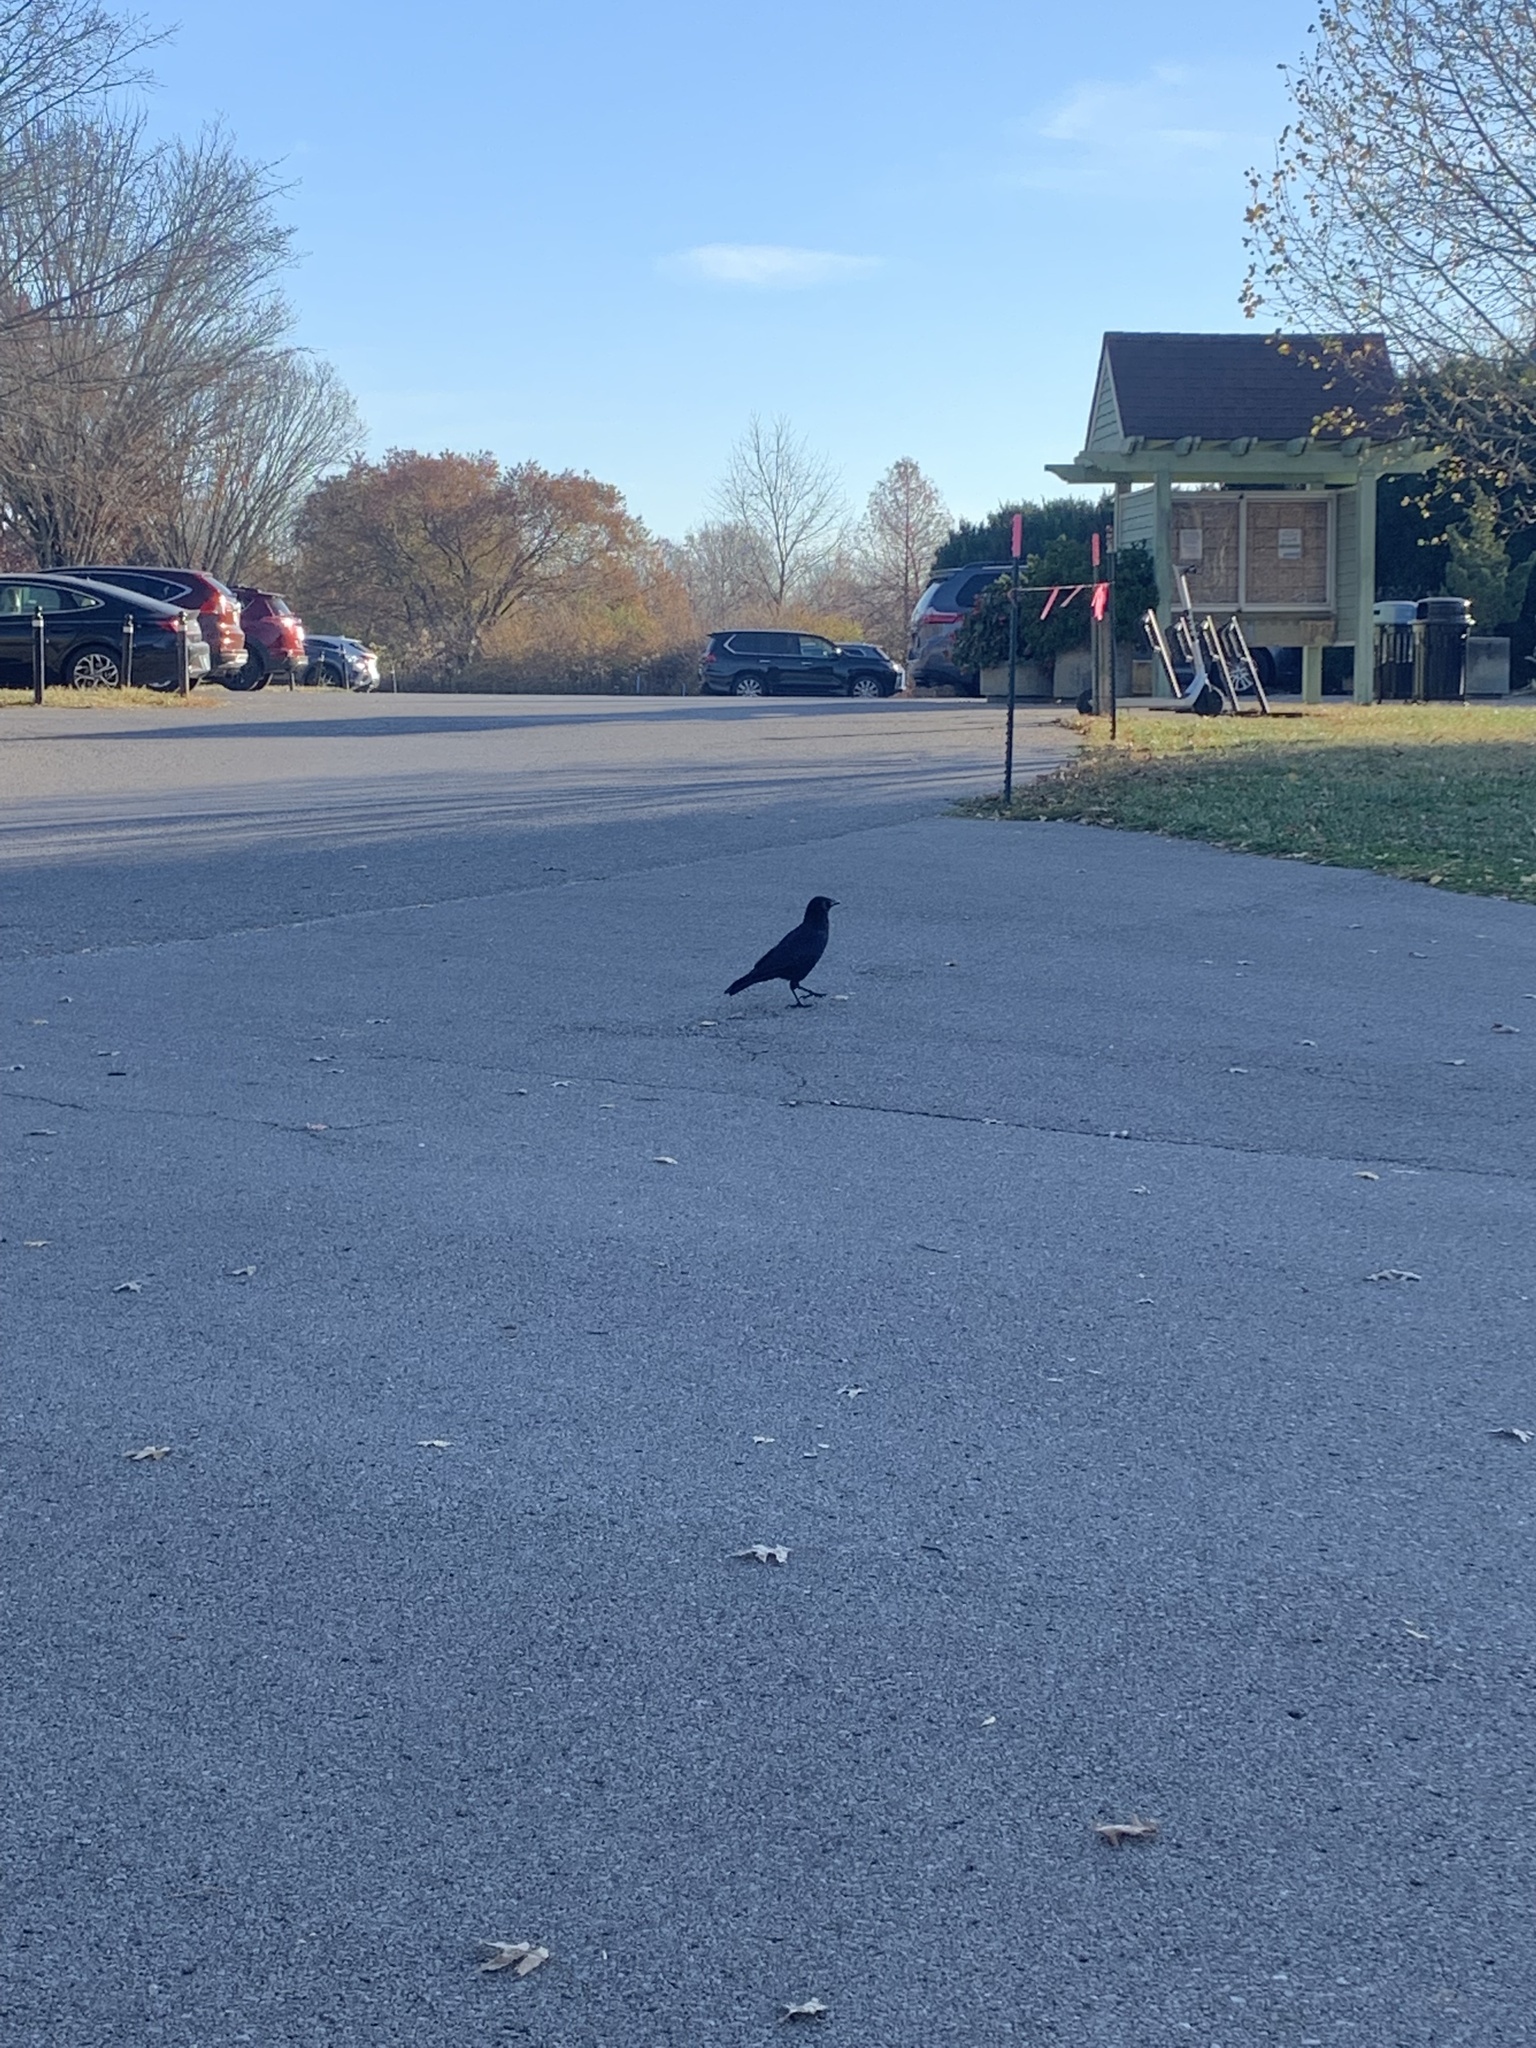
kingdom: Animalia
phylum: Chordata
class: Aves
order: Passeriformes
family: Corvidae
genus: Corvus
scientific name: Corvus brachyrhynchos
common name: American crow
